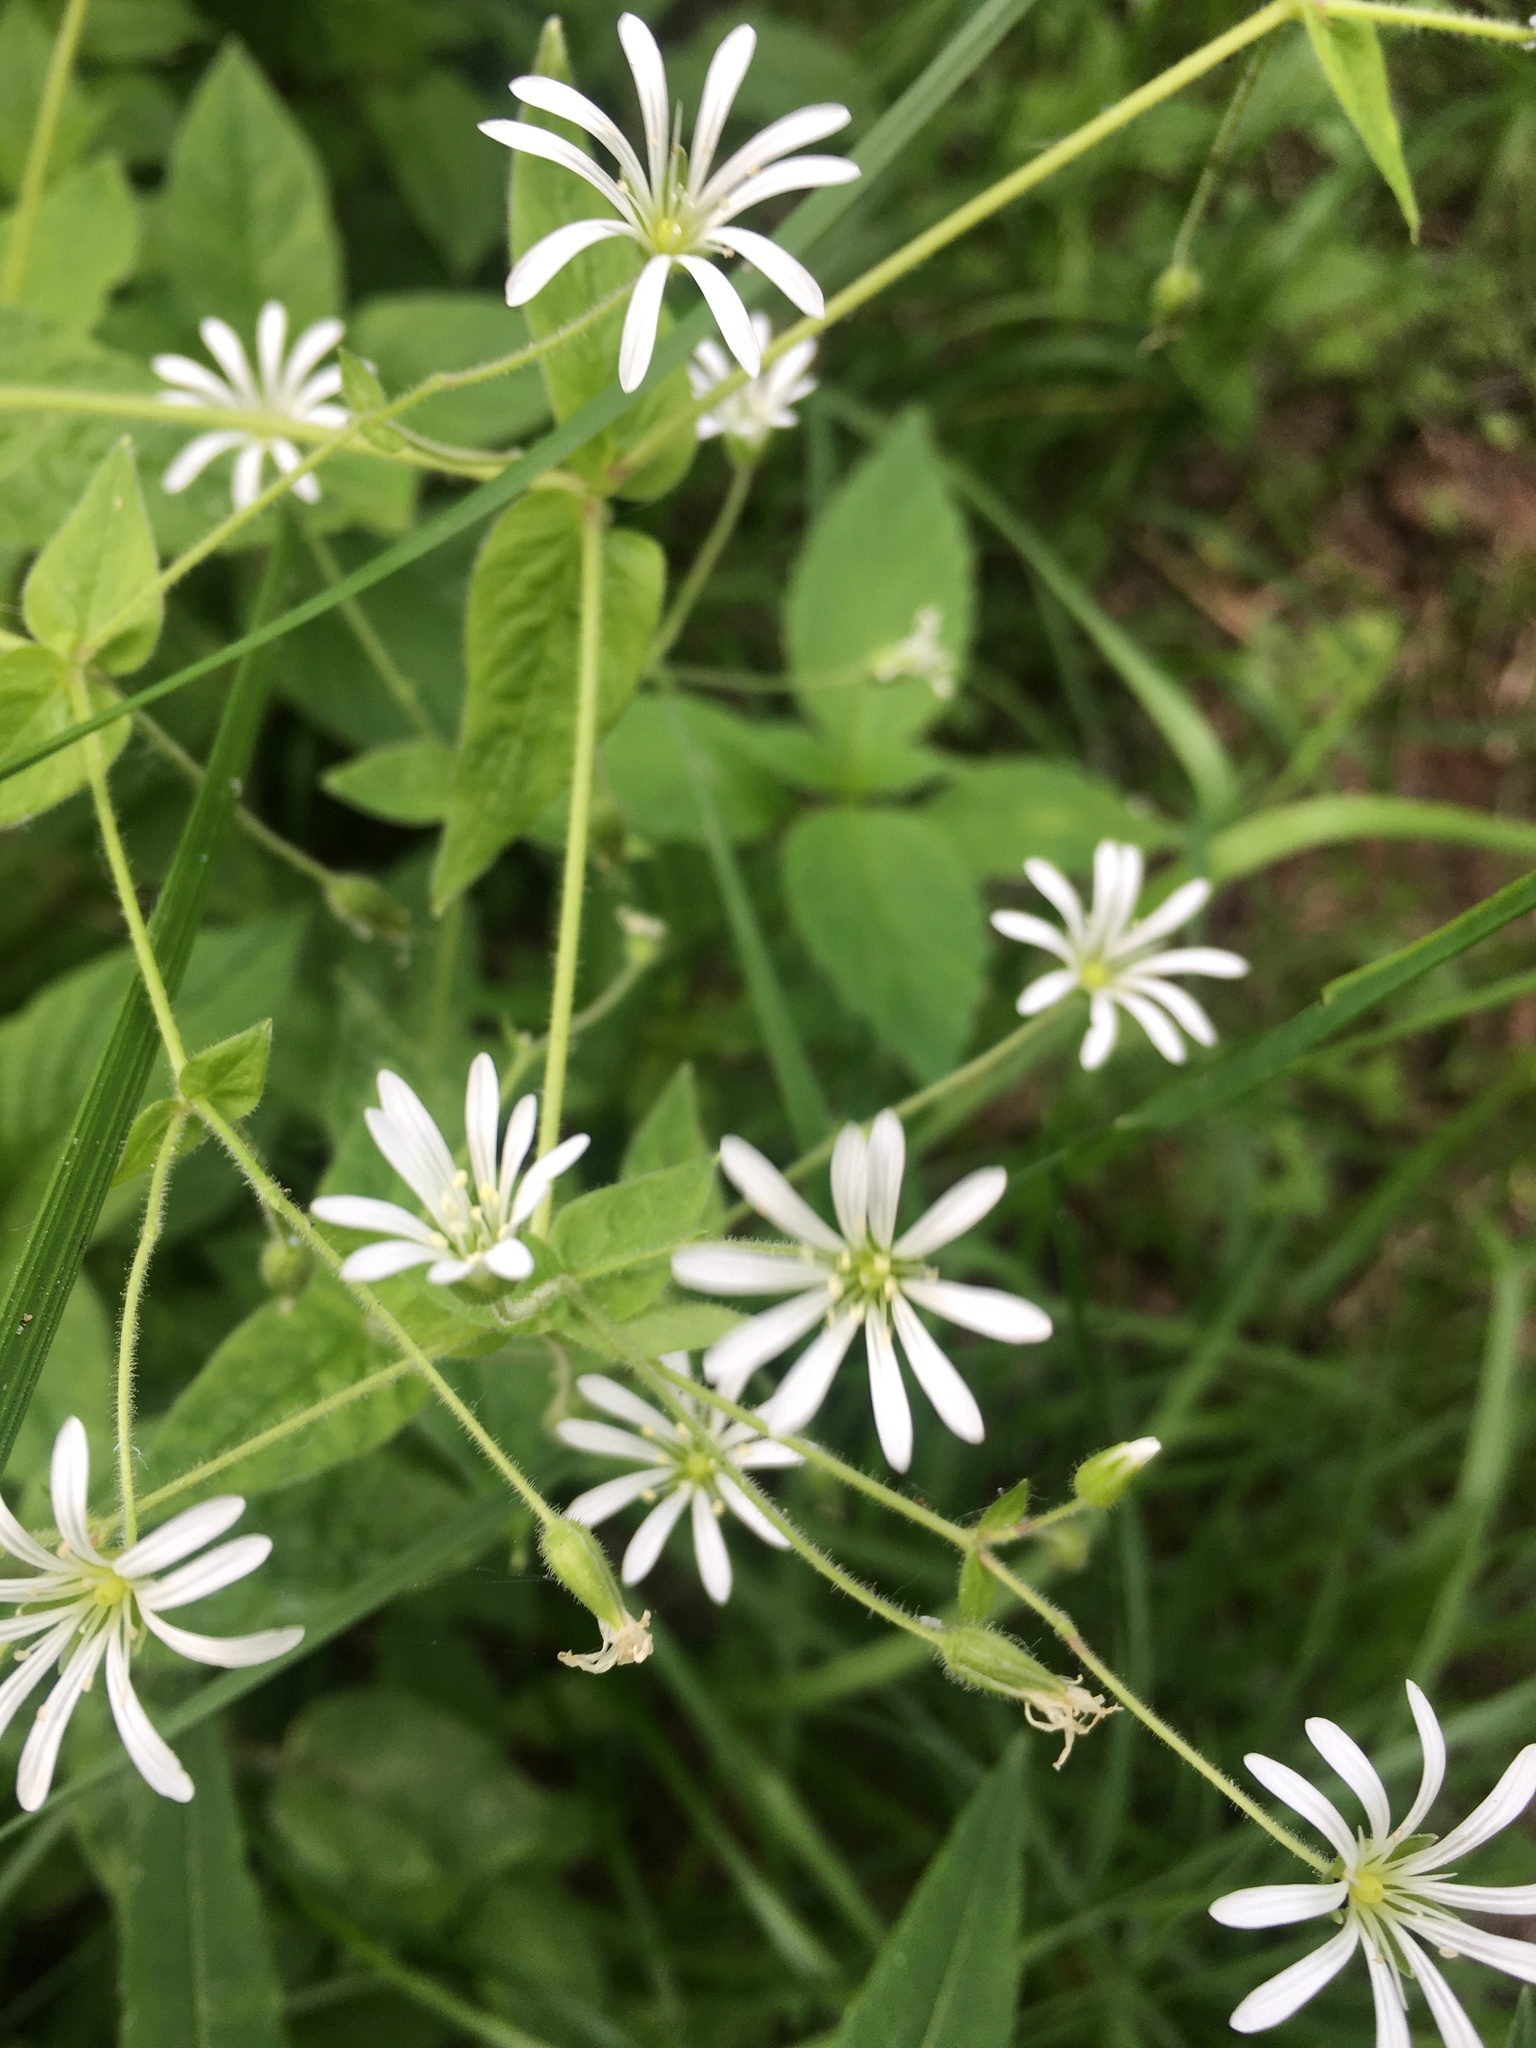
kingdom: Plantae
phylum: Tracheophyta
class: Magnoliopsida
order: Caryophyllales
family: Caryophyllaceae
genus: Stellaria
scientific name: Stellaria nemorum
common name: Wood stitchwort
